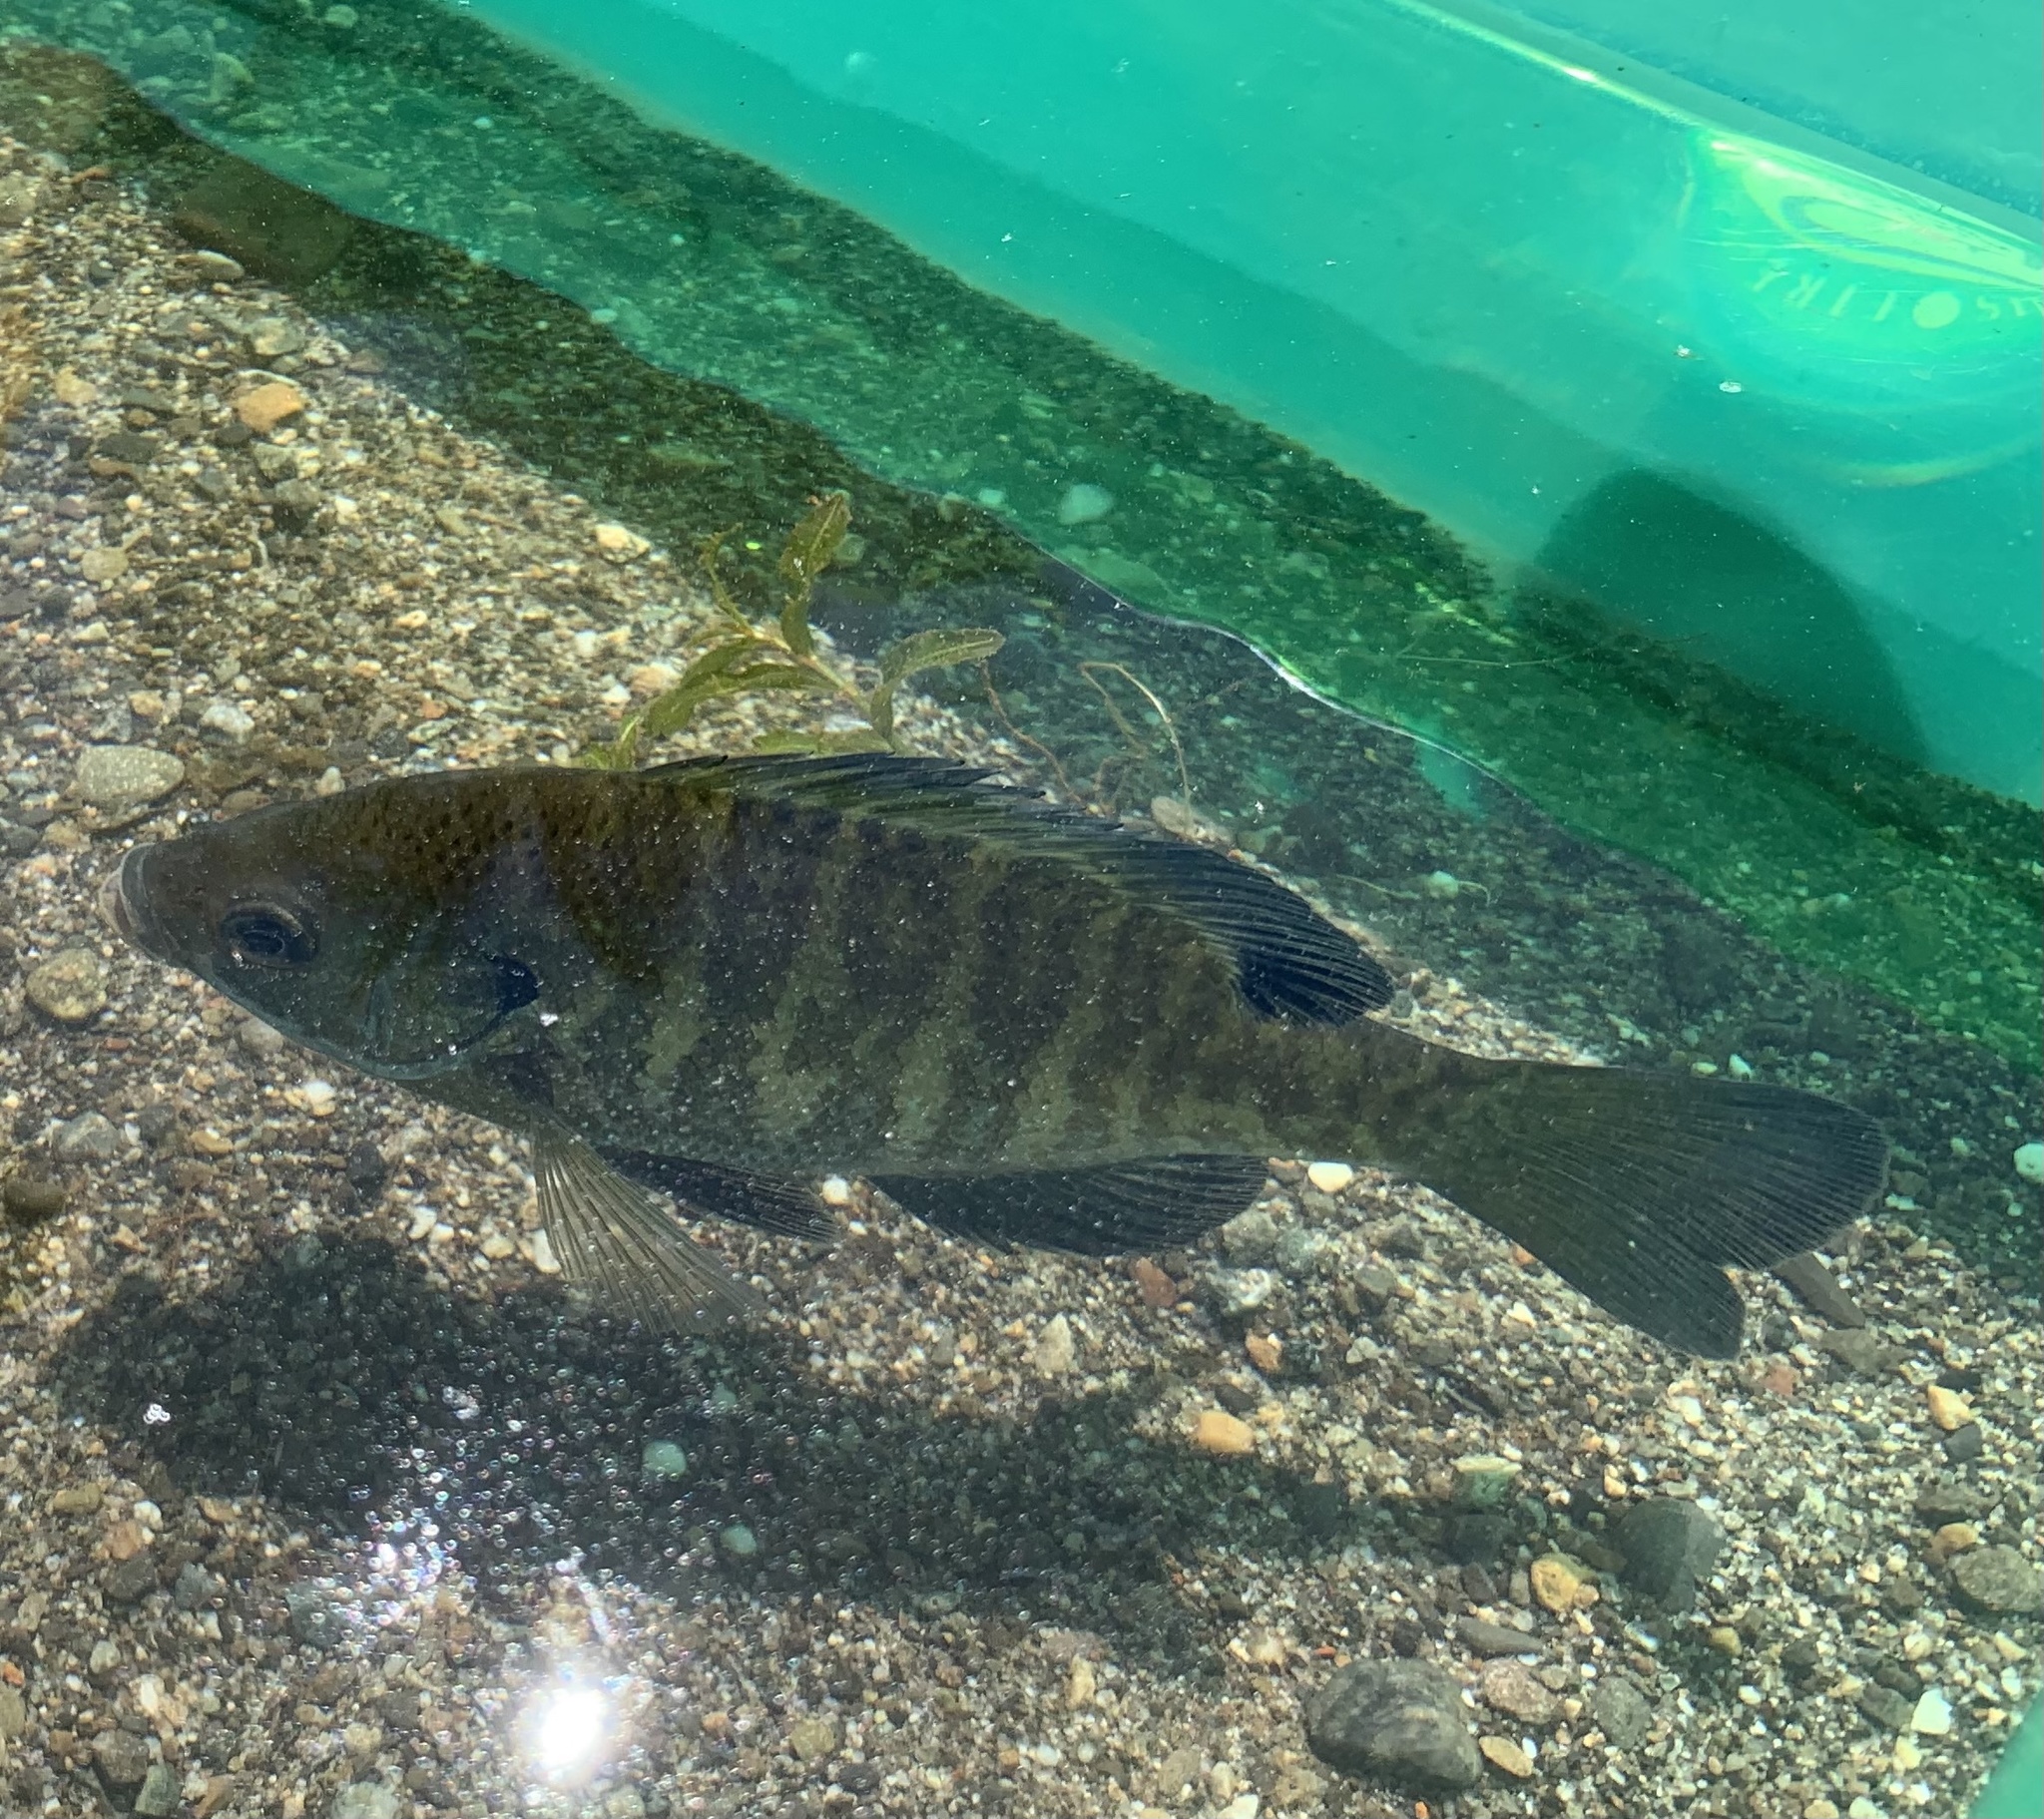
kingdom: Animalia
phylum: Chordata
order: Perciformes
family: Centrarchidae
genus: Lepomis
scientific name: Lepomis macrochirus
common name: Bluegill
